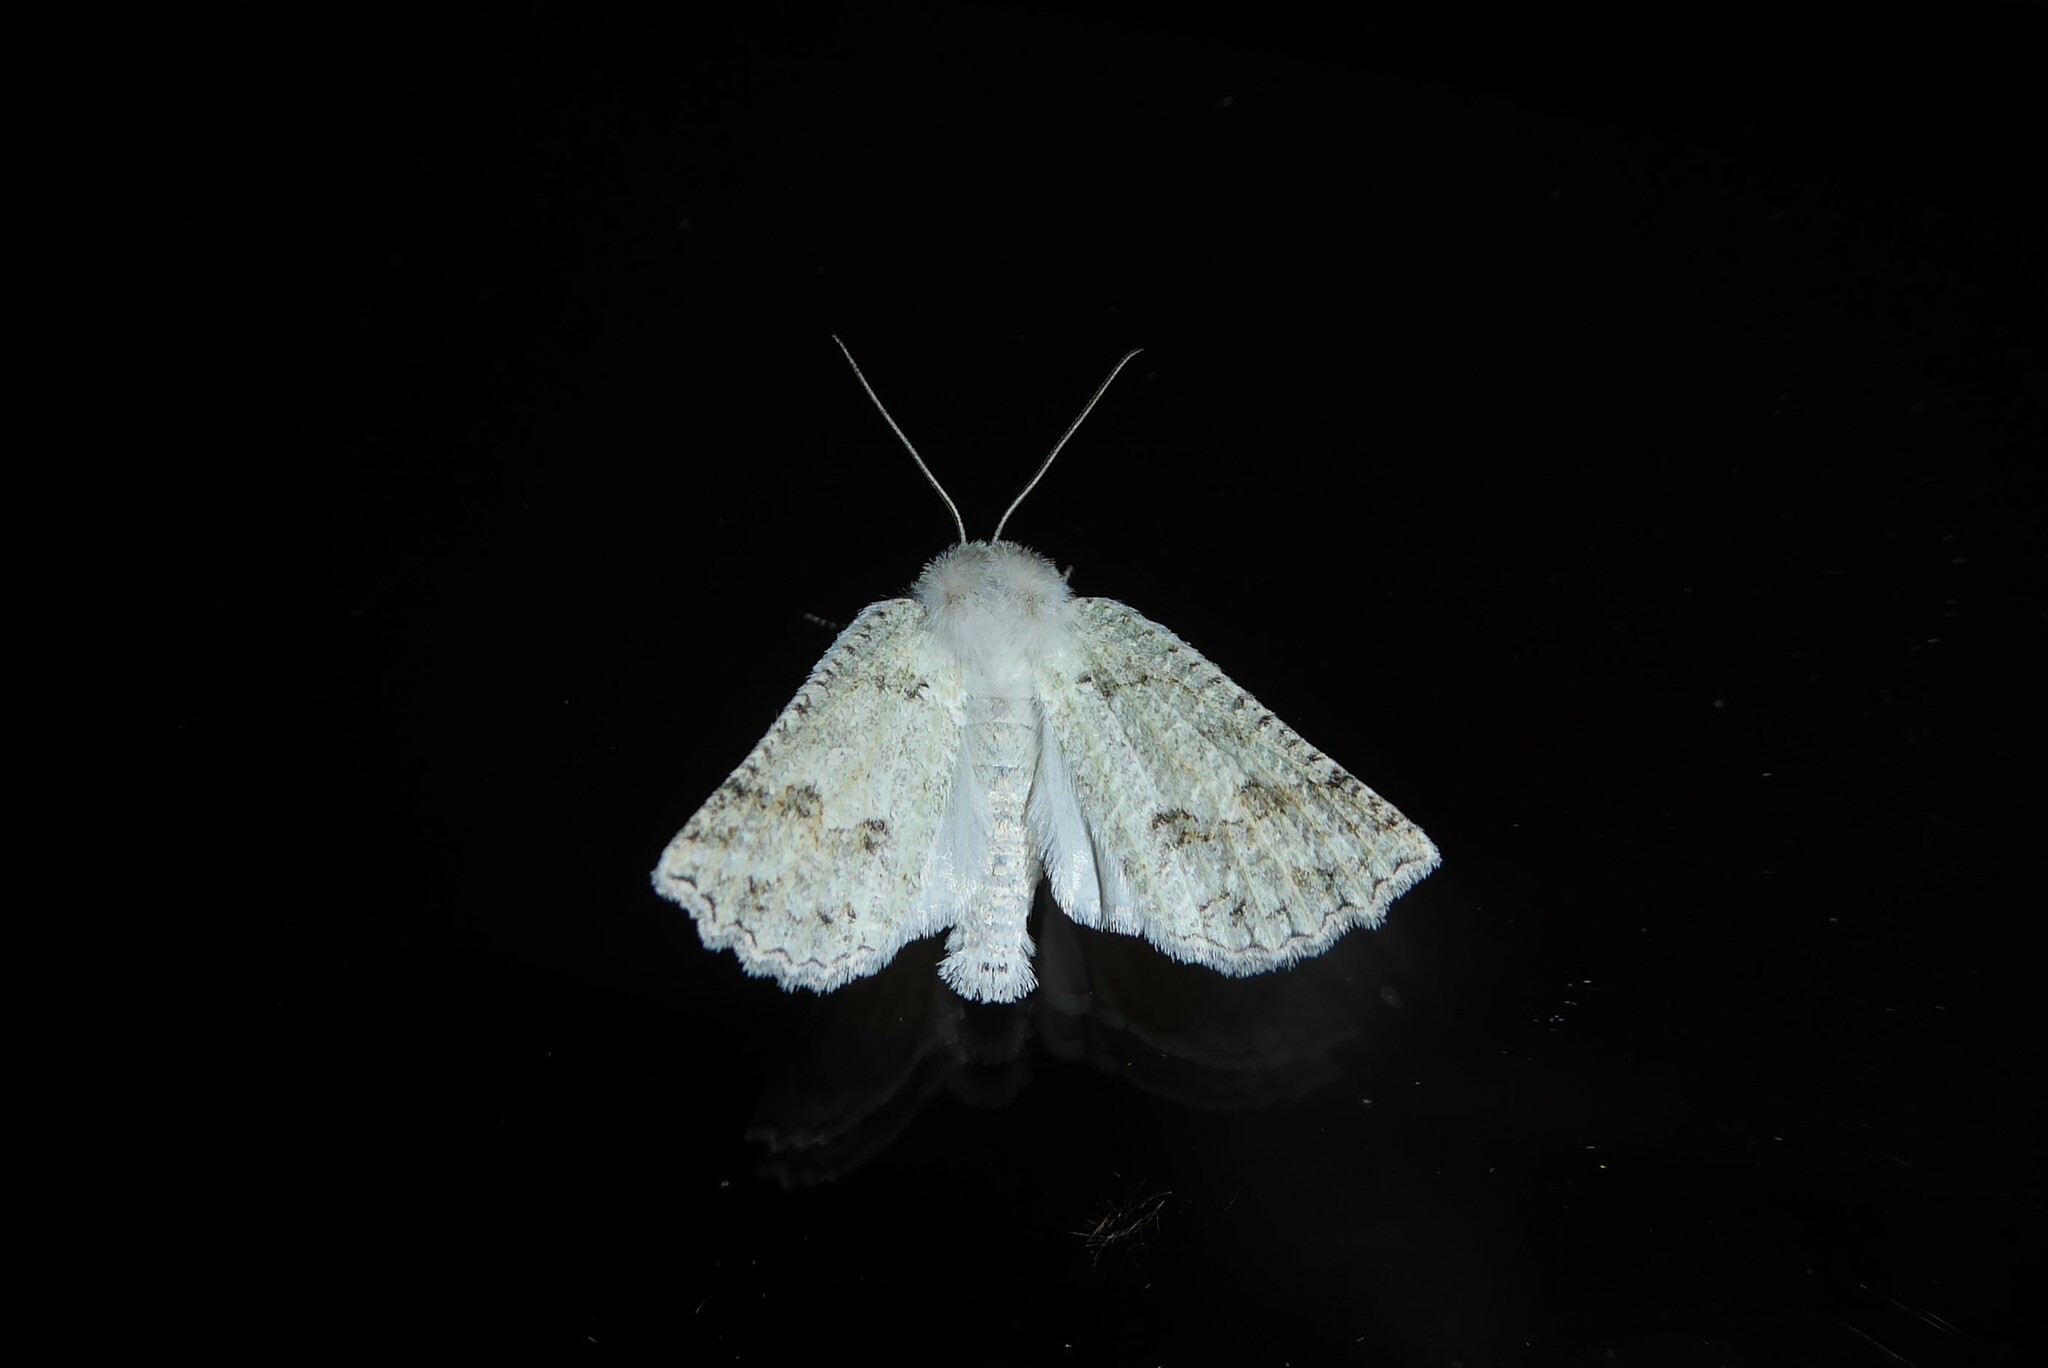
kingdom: Animalia
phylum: Arthropoda
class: Insecta
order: Lepidoptera
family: Geometridae
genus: Declana
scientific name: Declana niveata
